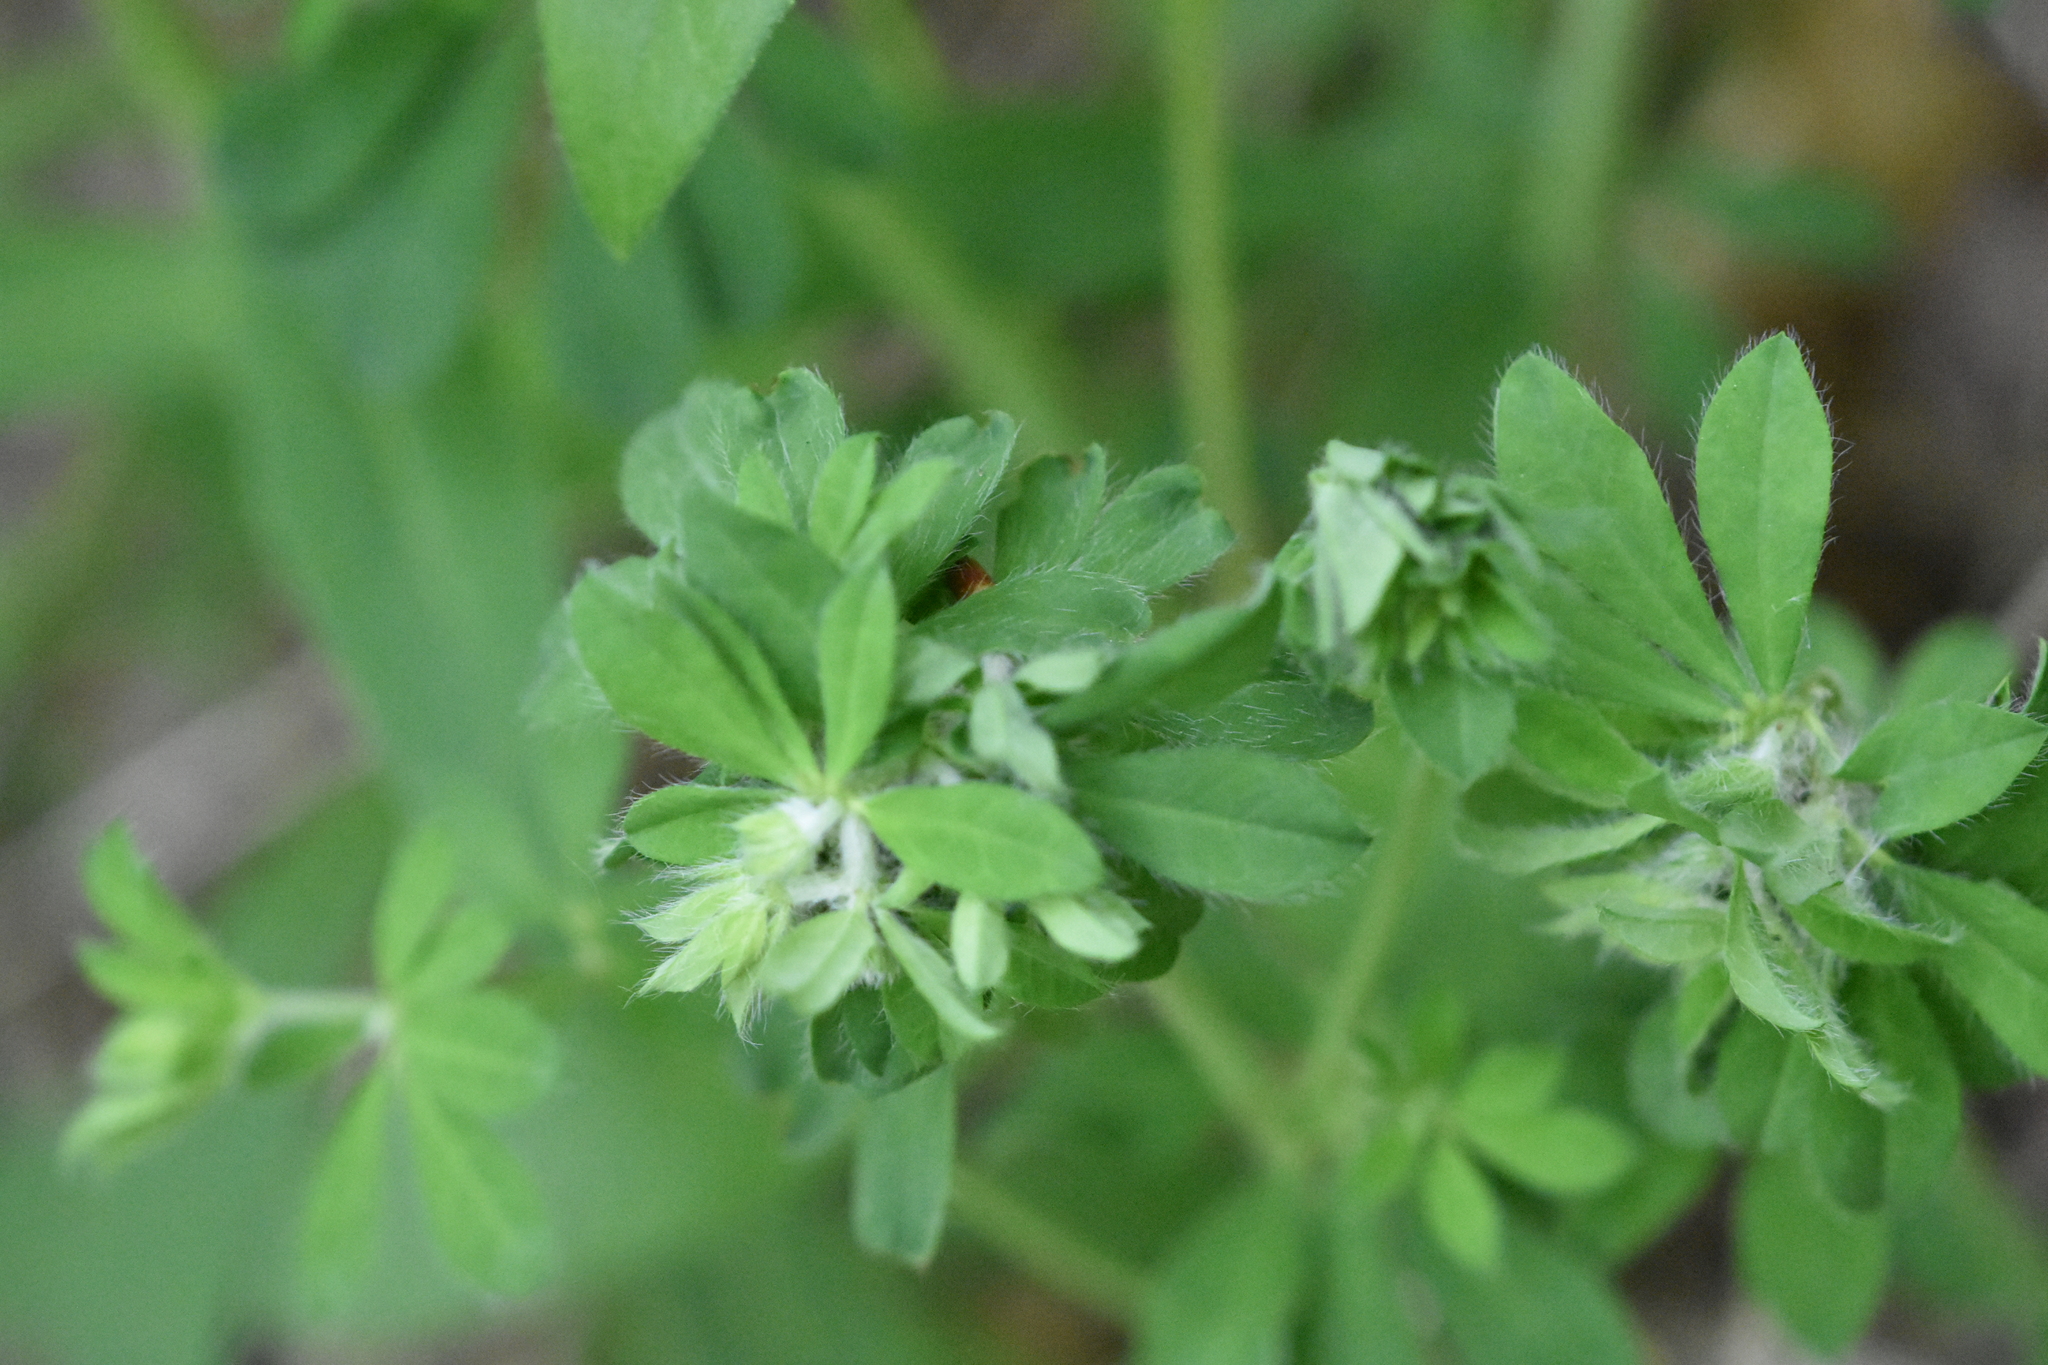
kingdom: Plantae
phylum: Tracheophyta
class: Magnoliopsida
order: Fabales
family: Fabaceae
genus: Lotus
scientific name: Lotus herbaceus
